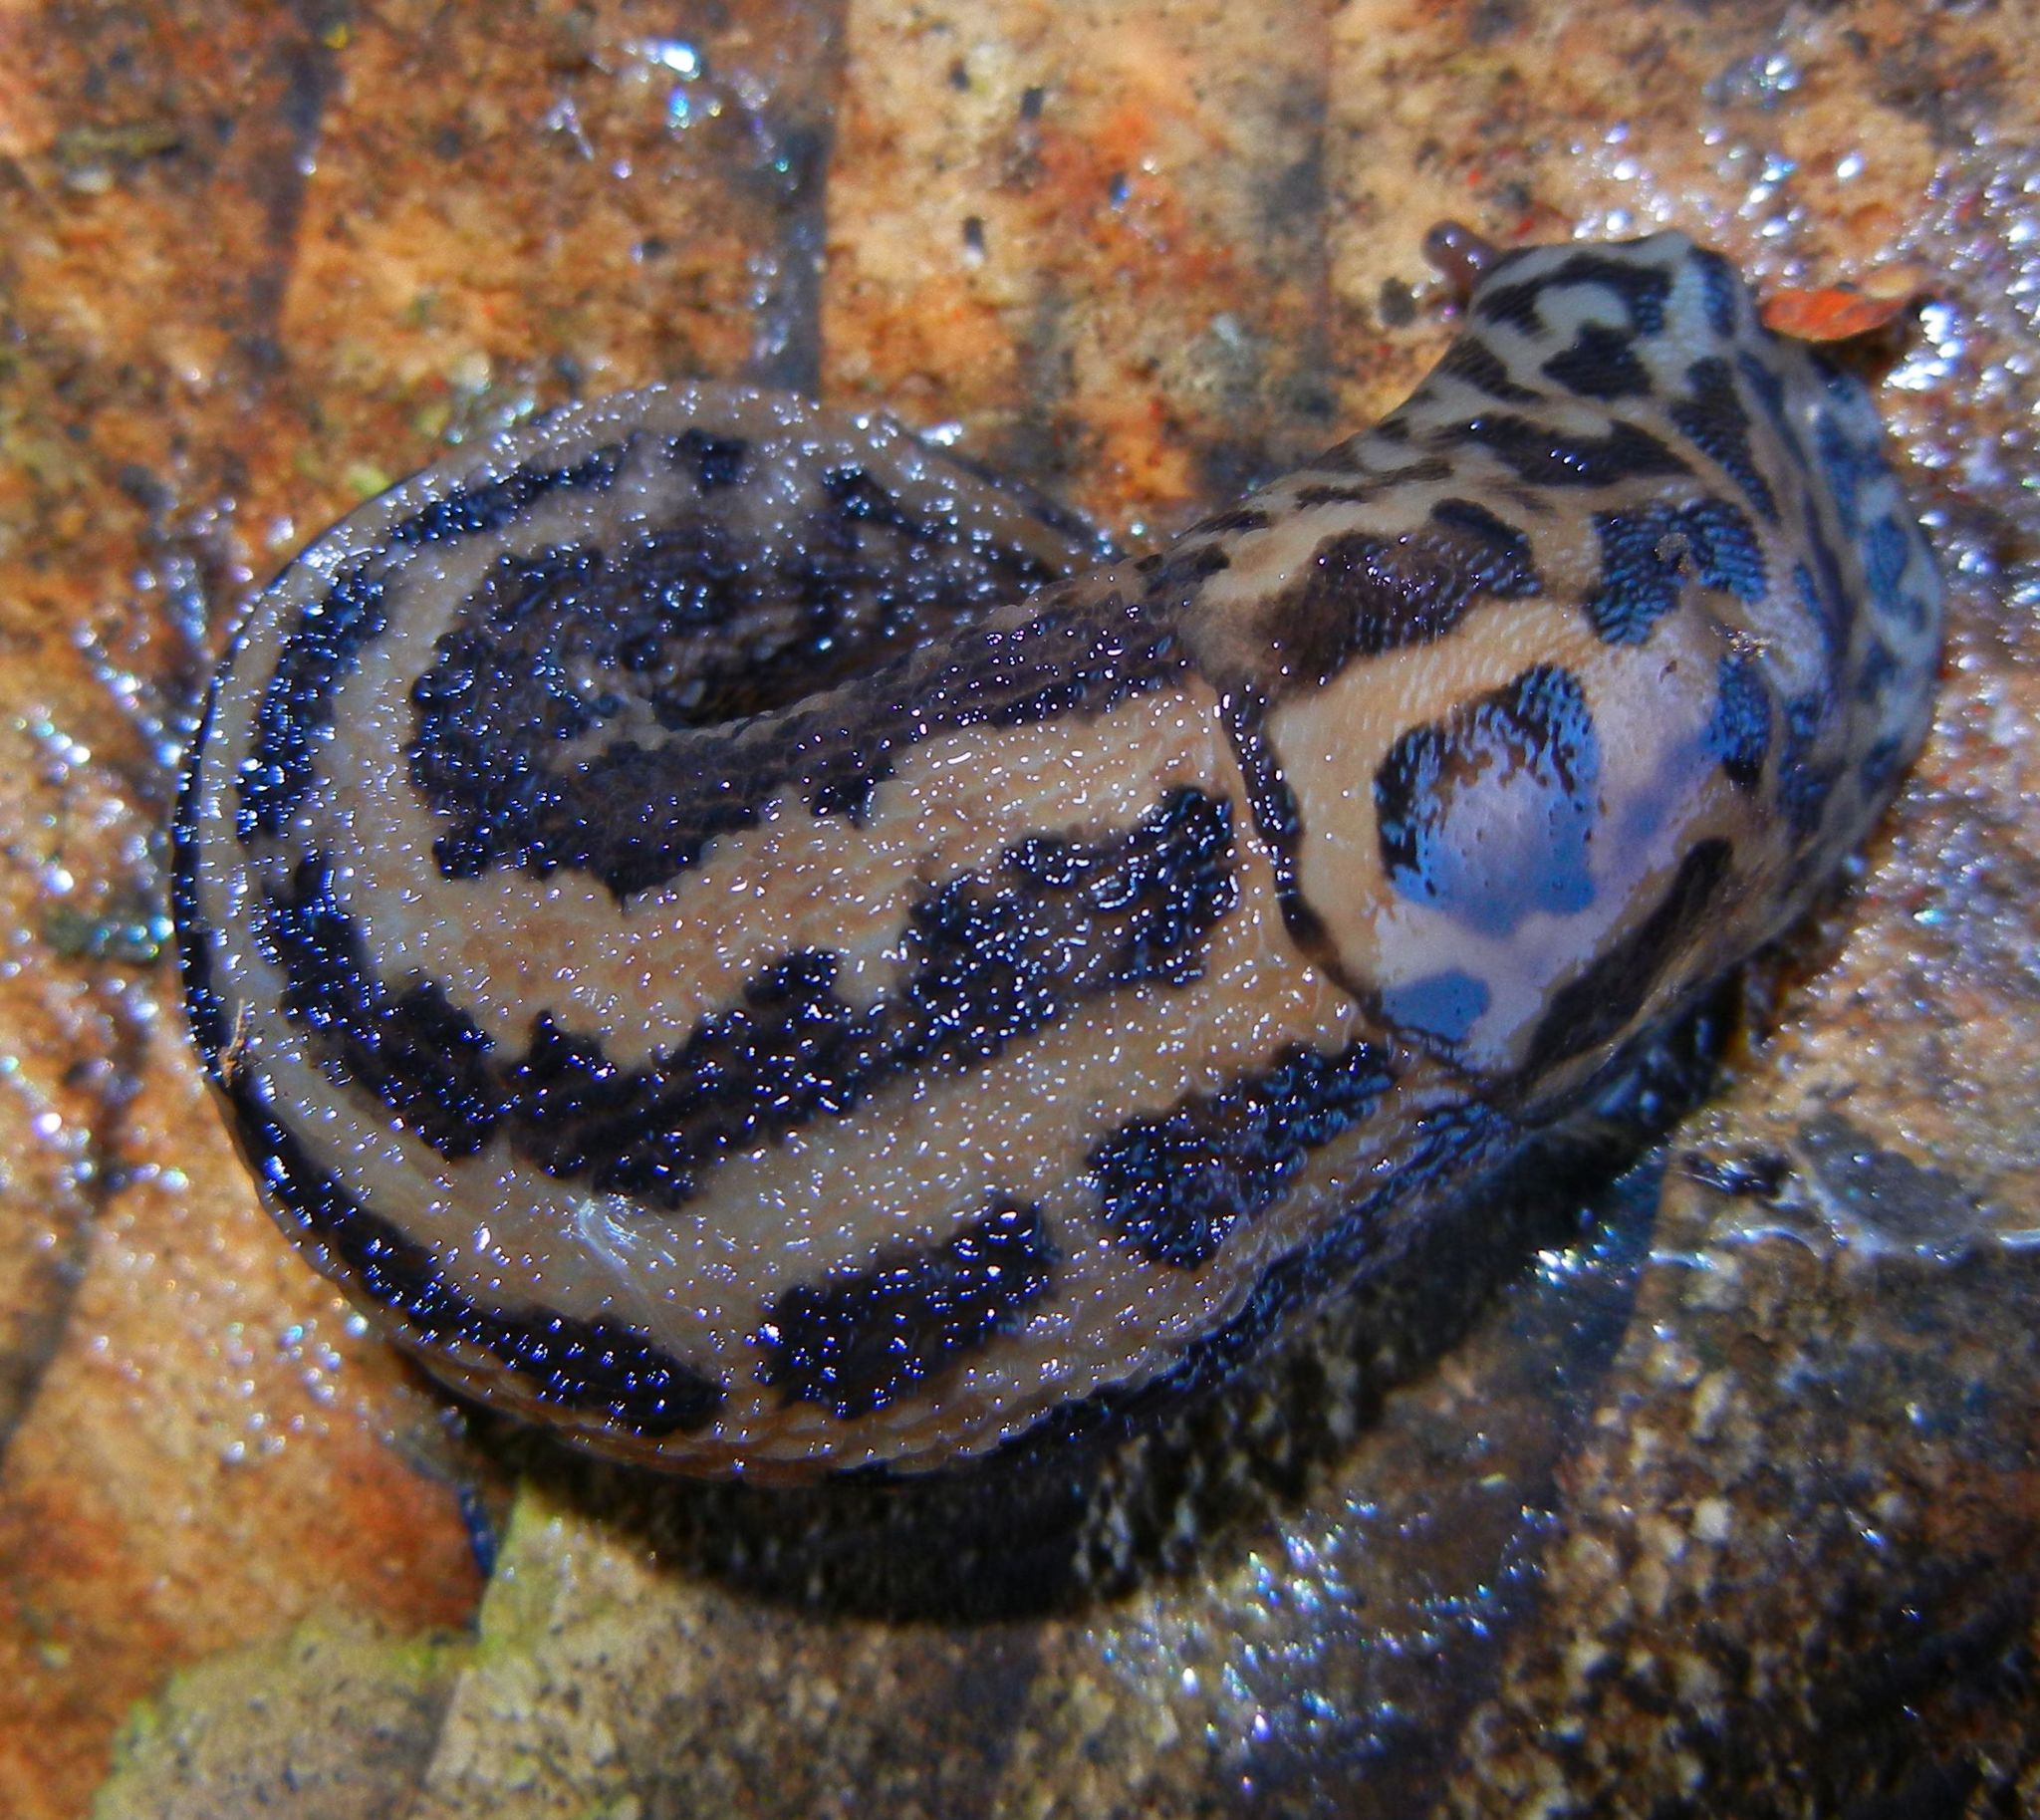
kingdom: Animalia
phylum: Mollusca
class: Gastropoda
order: Stylommatophora
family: Limacidae
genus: Limax
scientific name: Limax maximus
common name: Great grey slug
